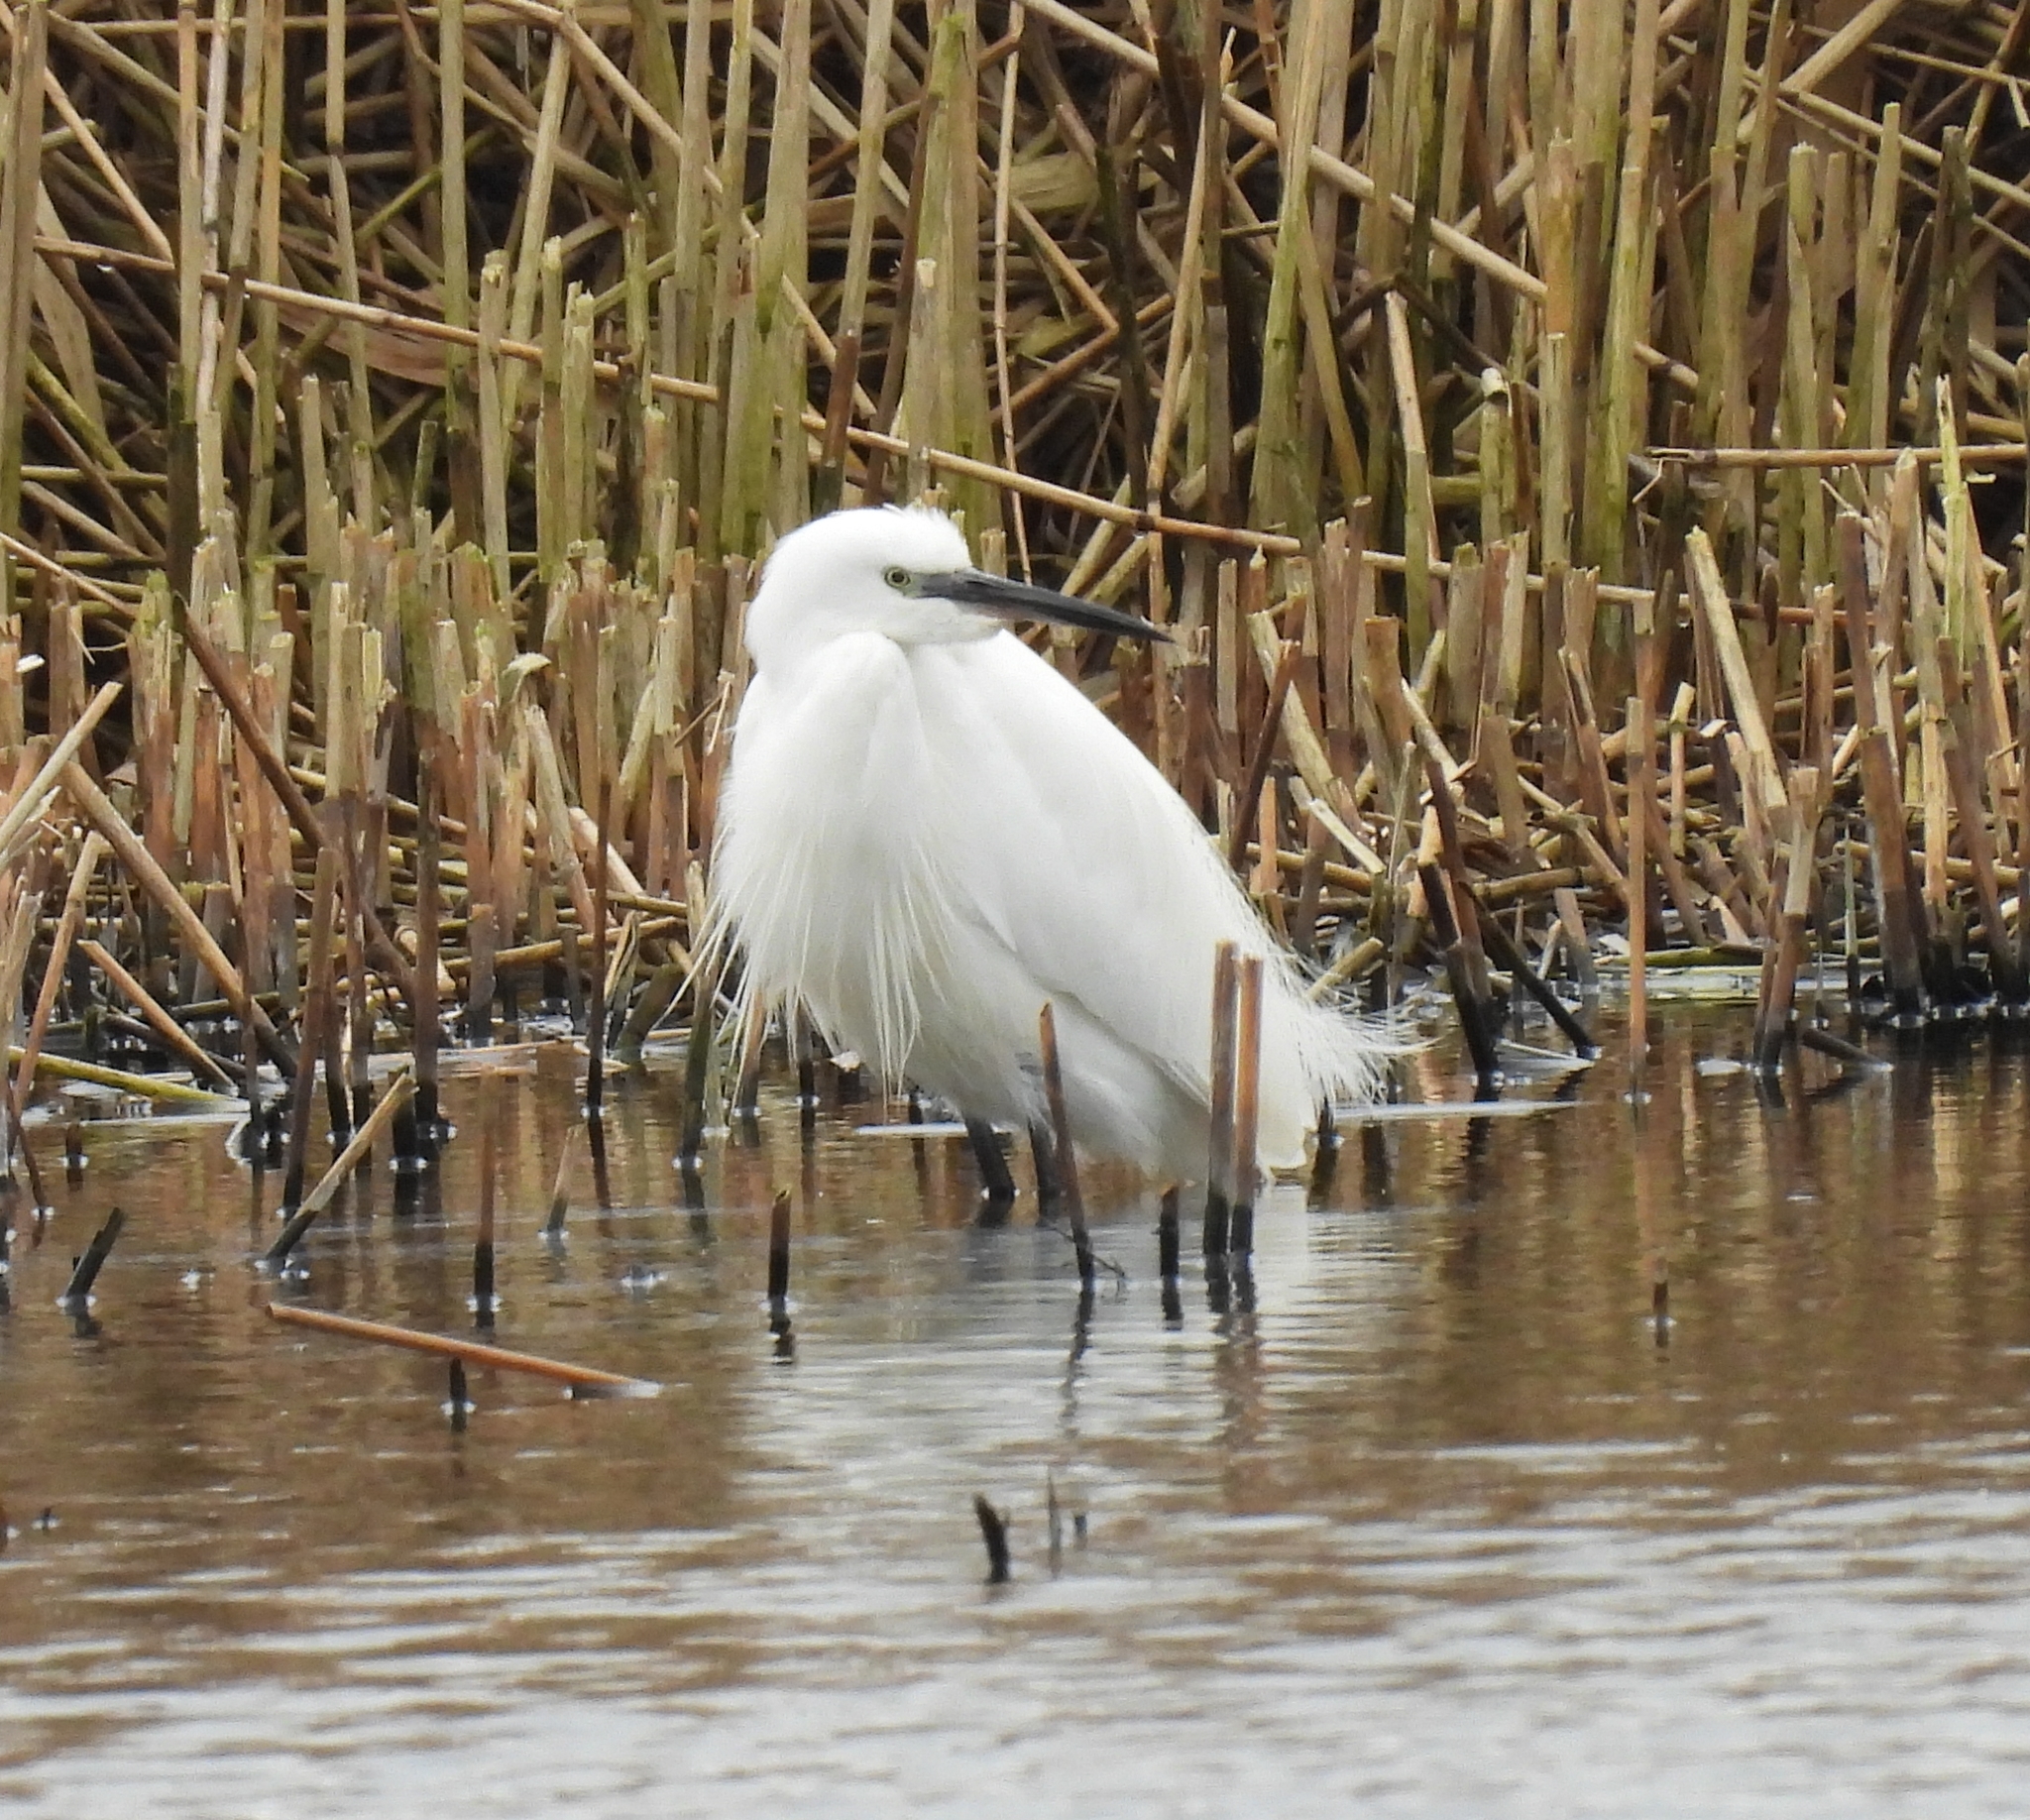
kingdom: Animalia
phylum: Chordata
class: Aves
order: Pelecaniformes
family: Ardeidae
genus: Egretta
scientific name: Egretta garzetta
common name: Little egret
